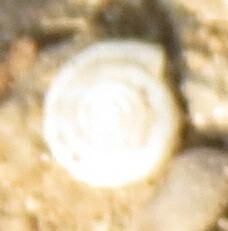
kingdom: Animalia
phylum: Mollusca
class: Gastropoda
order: Stylommatophora
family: Polygyridae
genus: Polygyra
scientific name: Polygyra cereolus
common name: Southern flatcone snail
